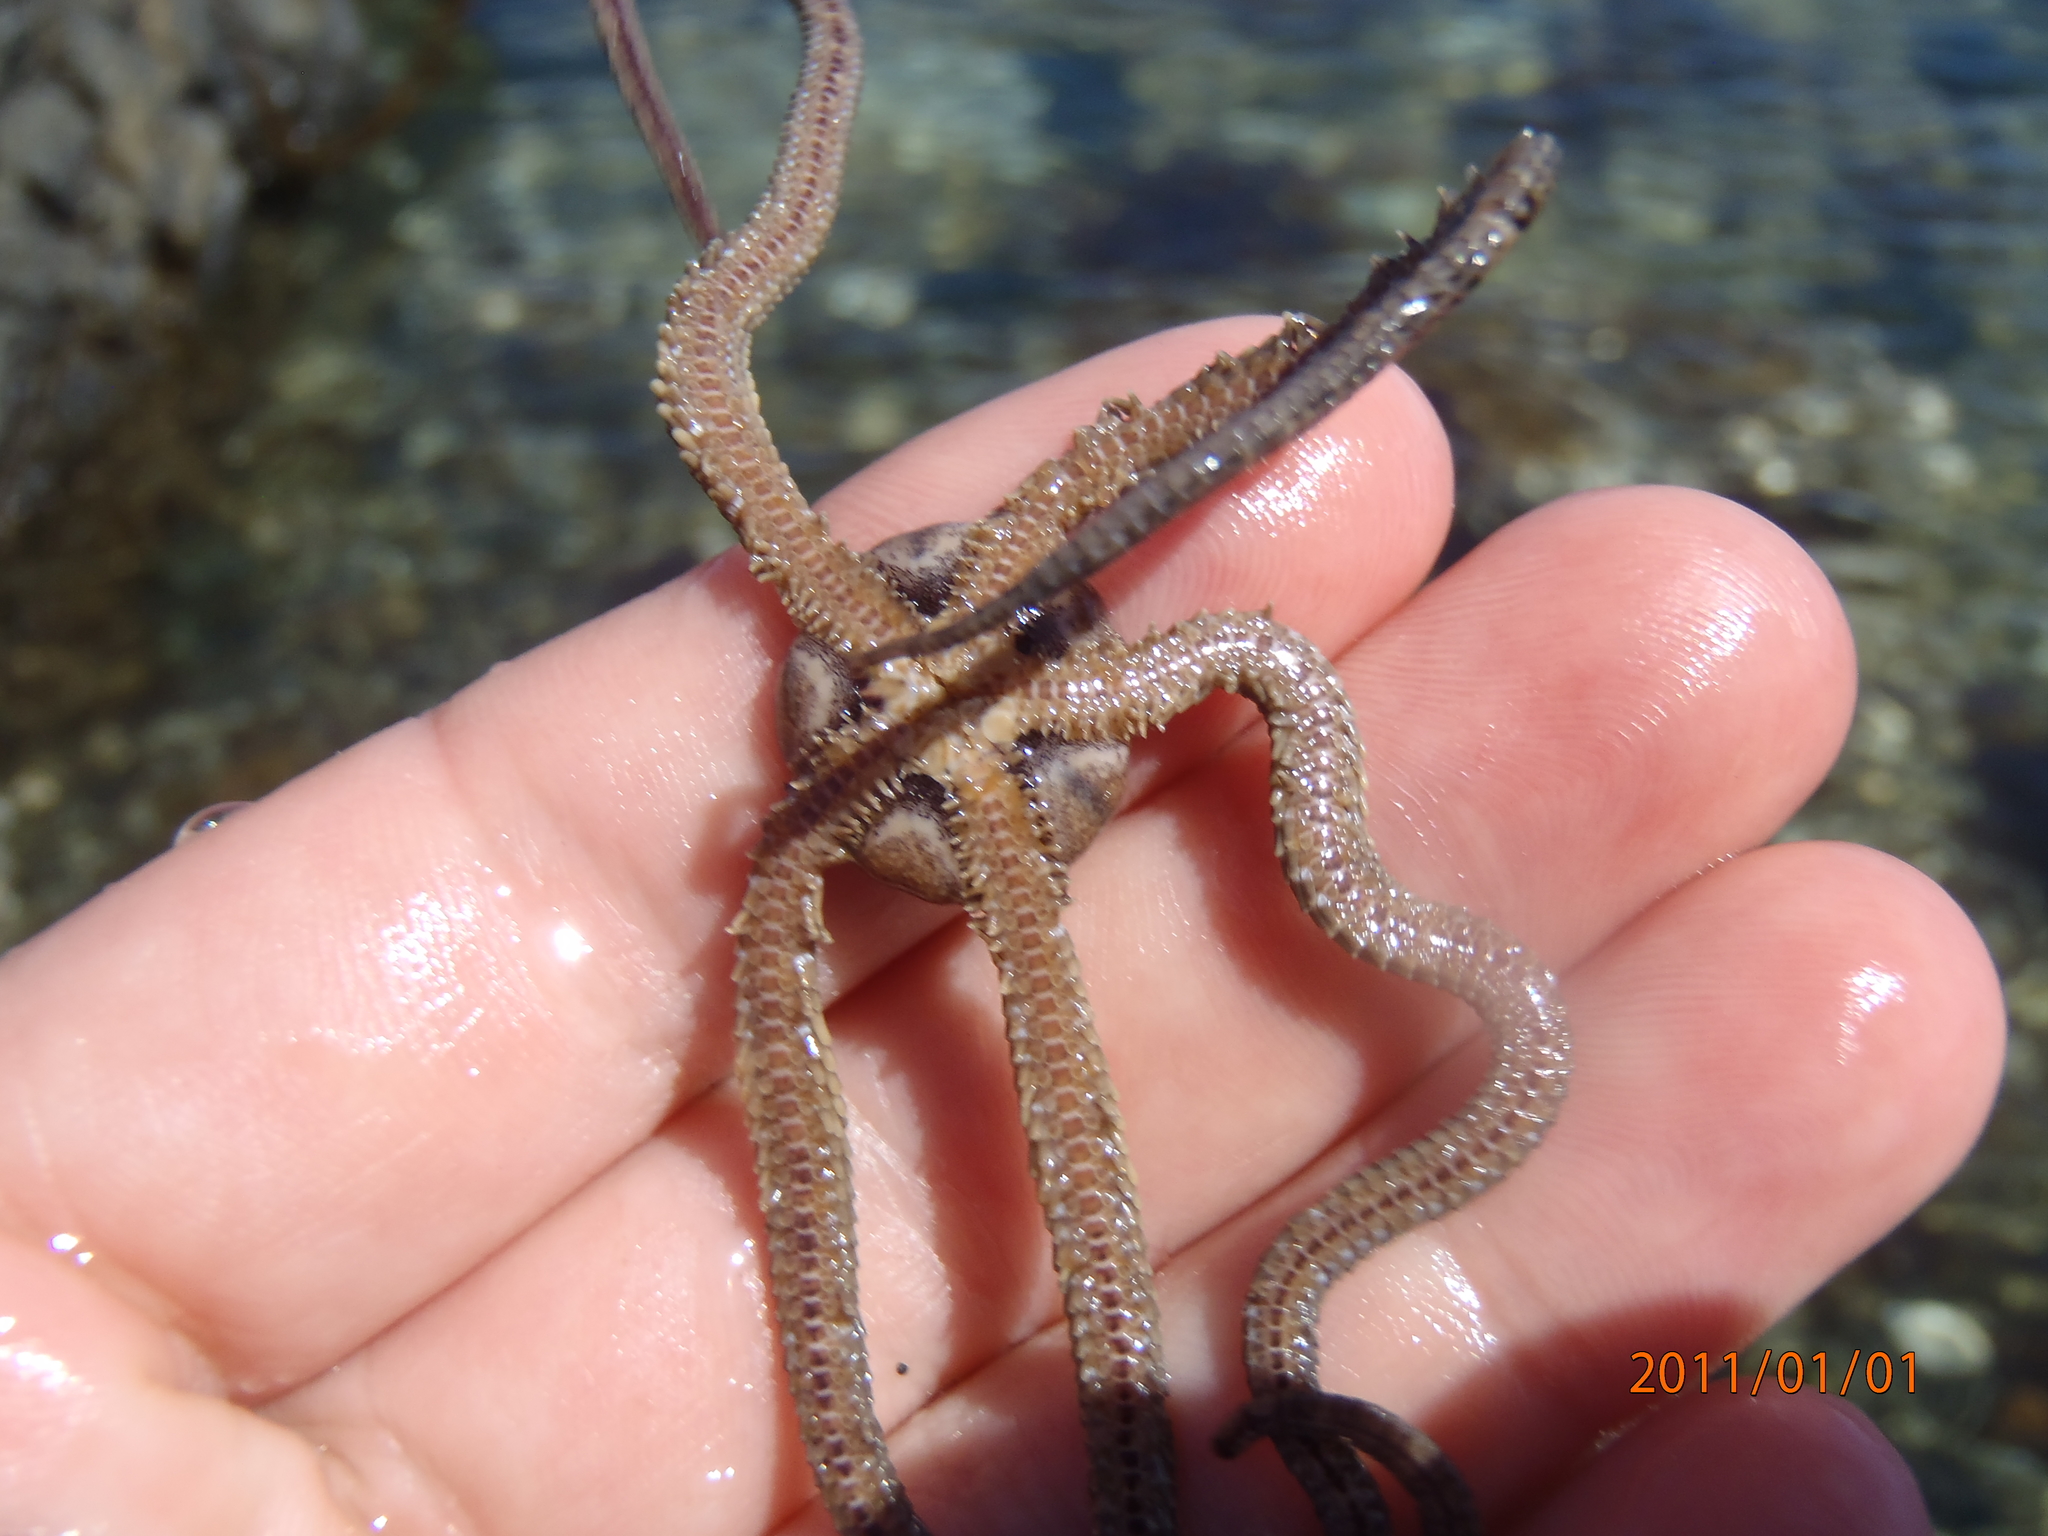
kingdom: Animalia
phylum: Echinodermata
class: Ophiuroidea
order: Amphilepidida
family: Ophionereididae
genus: Ophionereis
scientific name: Ophionereis fasciata
